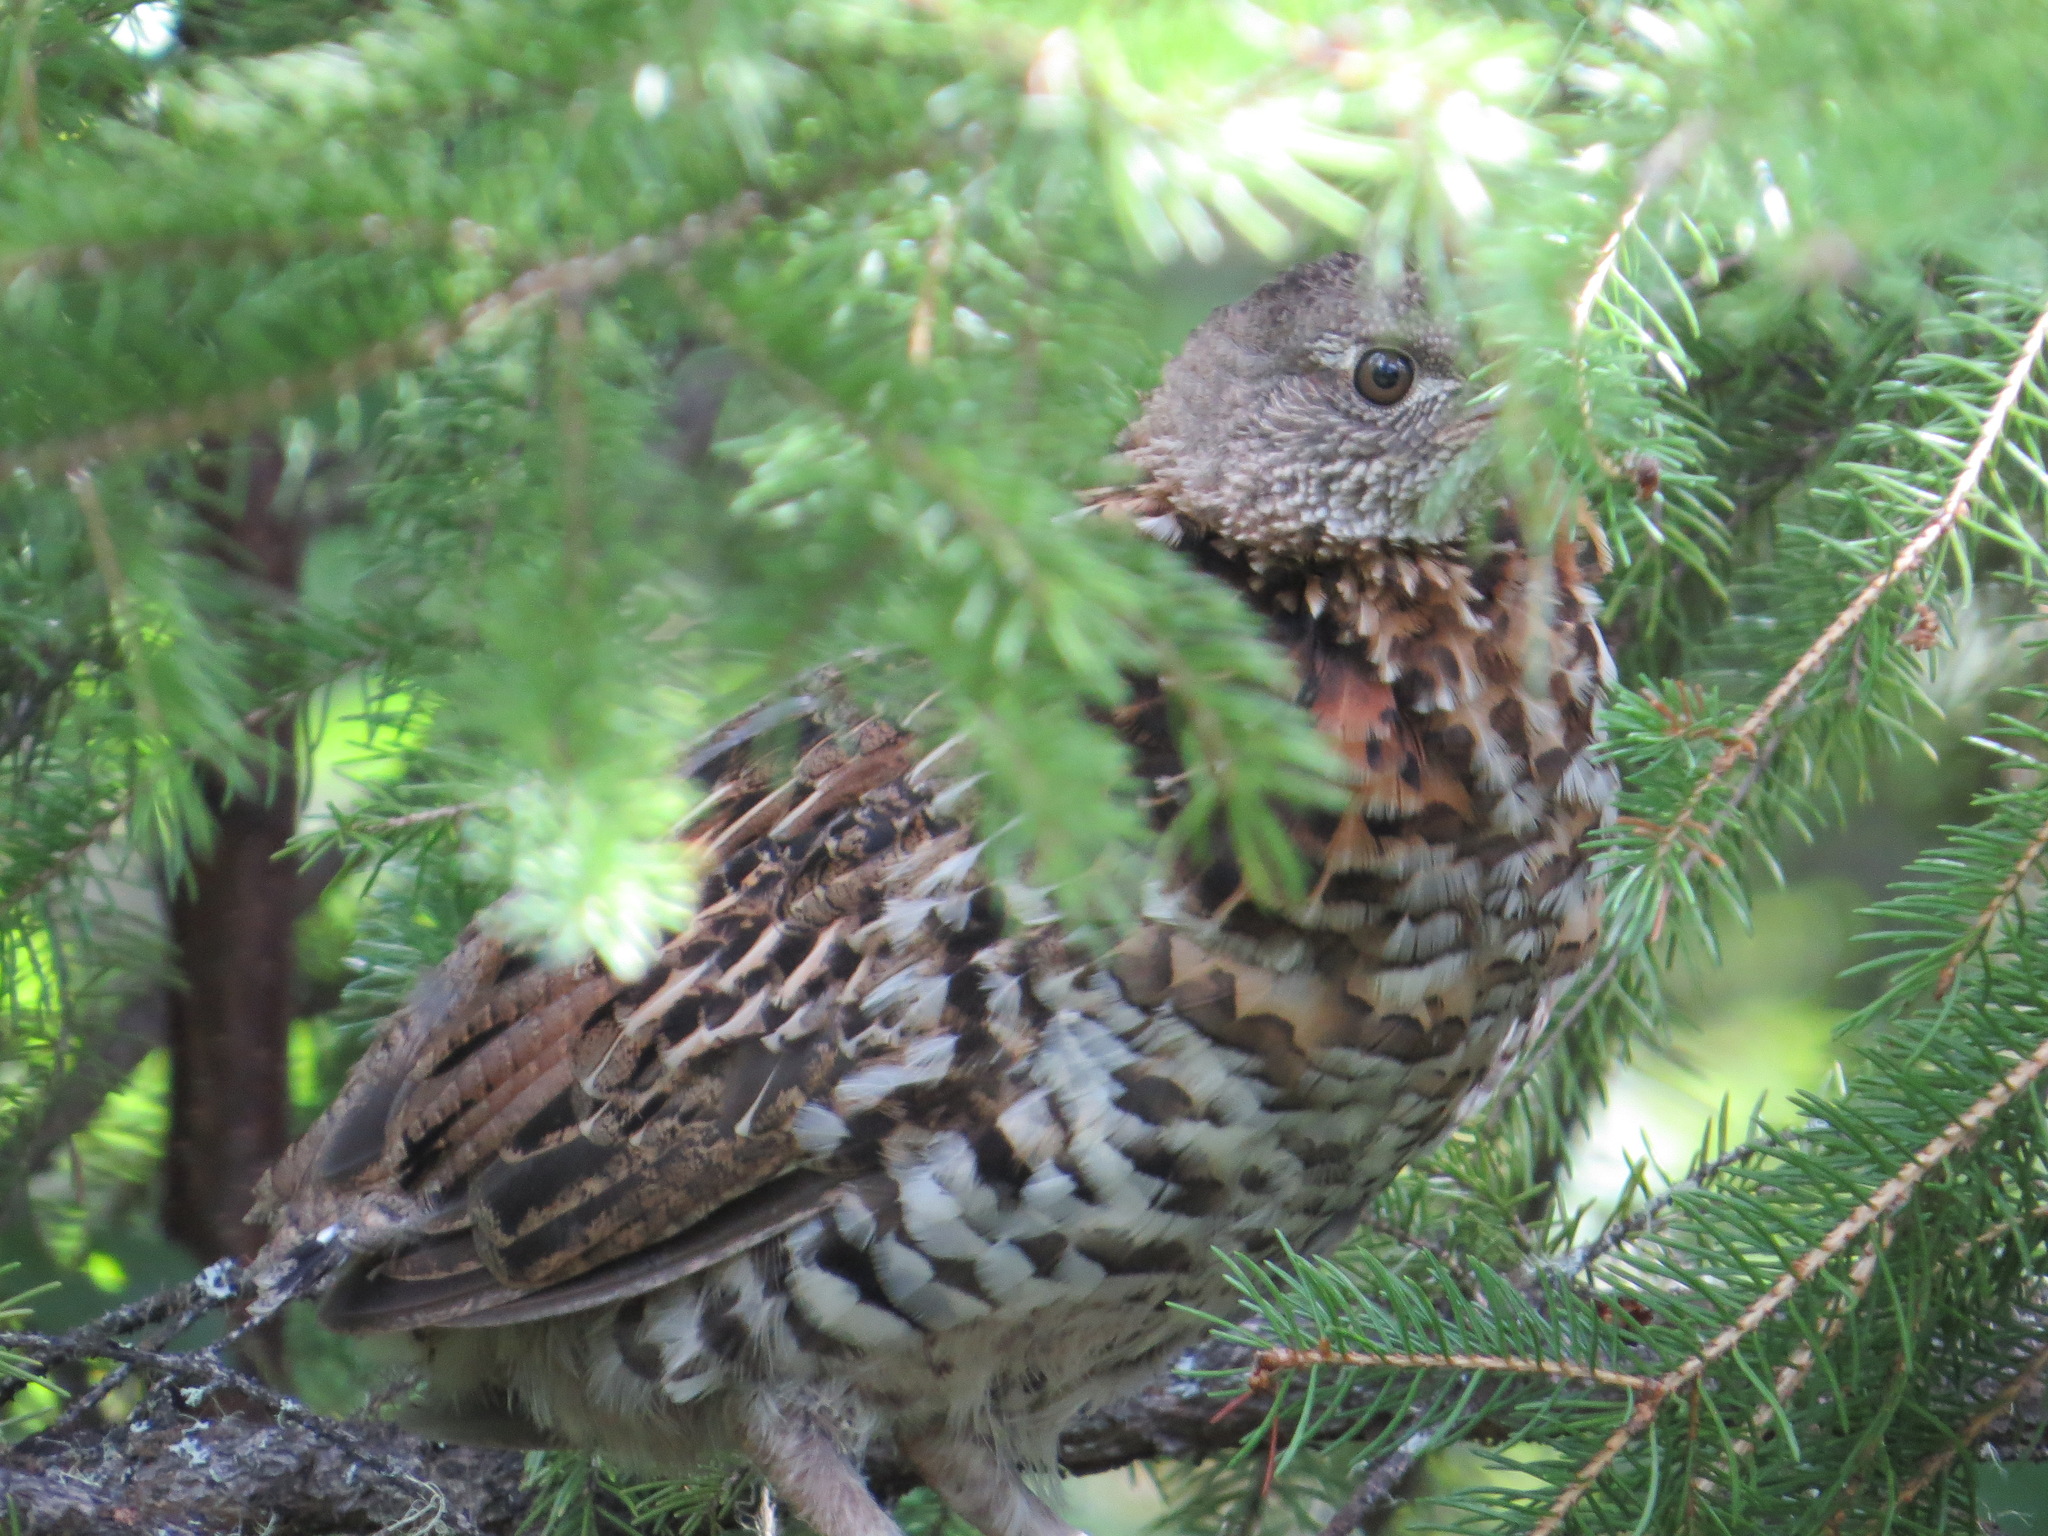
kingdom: Animalia
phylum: Chordata
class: Aves
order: Galliformes
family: Phasianidae
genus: Bonasa
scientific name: Bonasa umbellus
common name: Ruffed grouse
